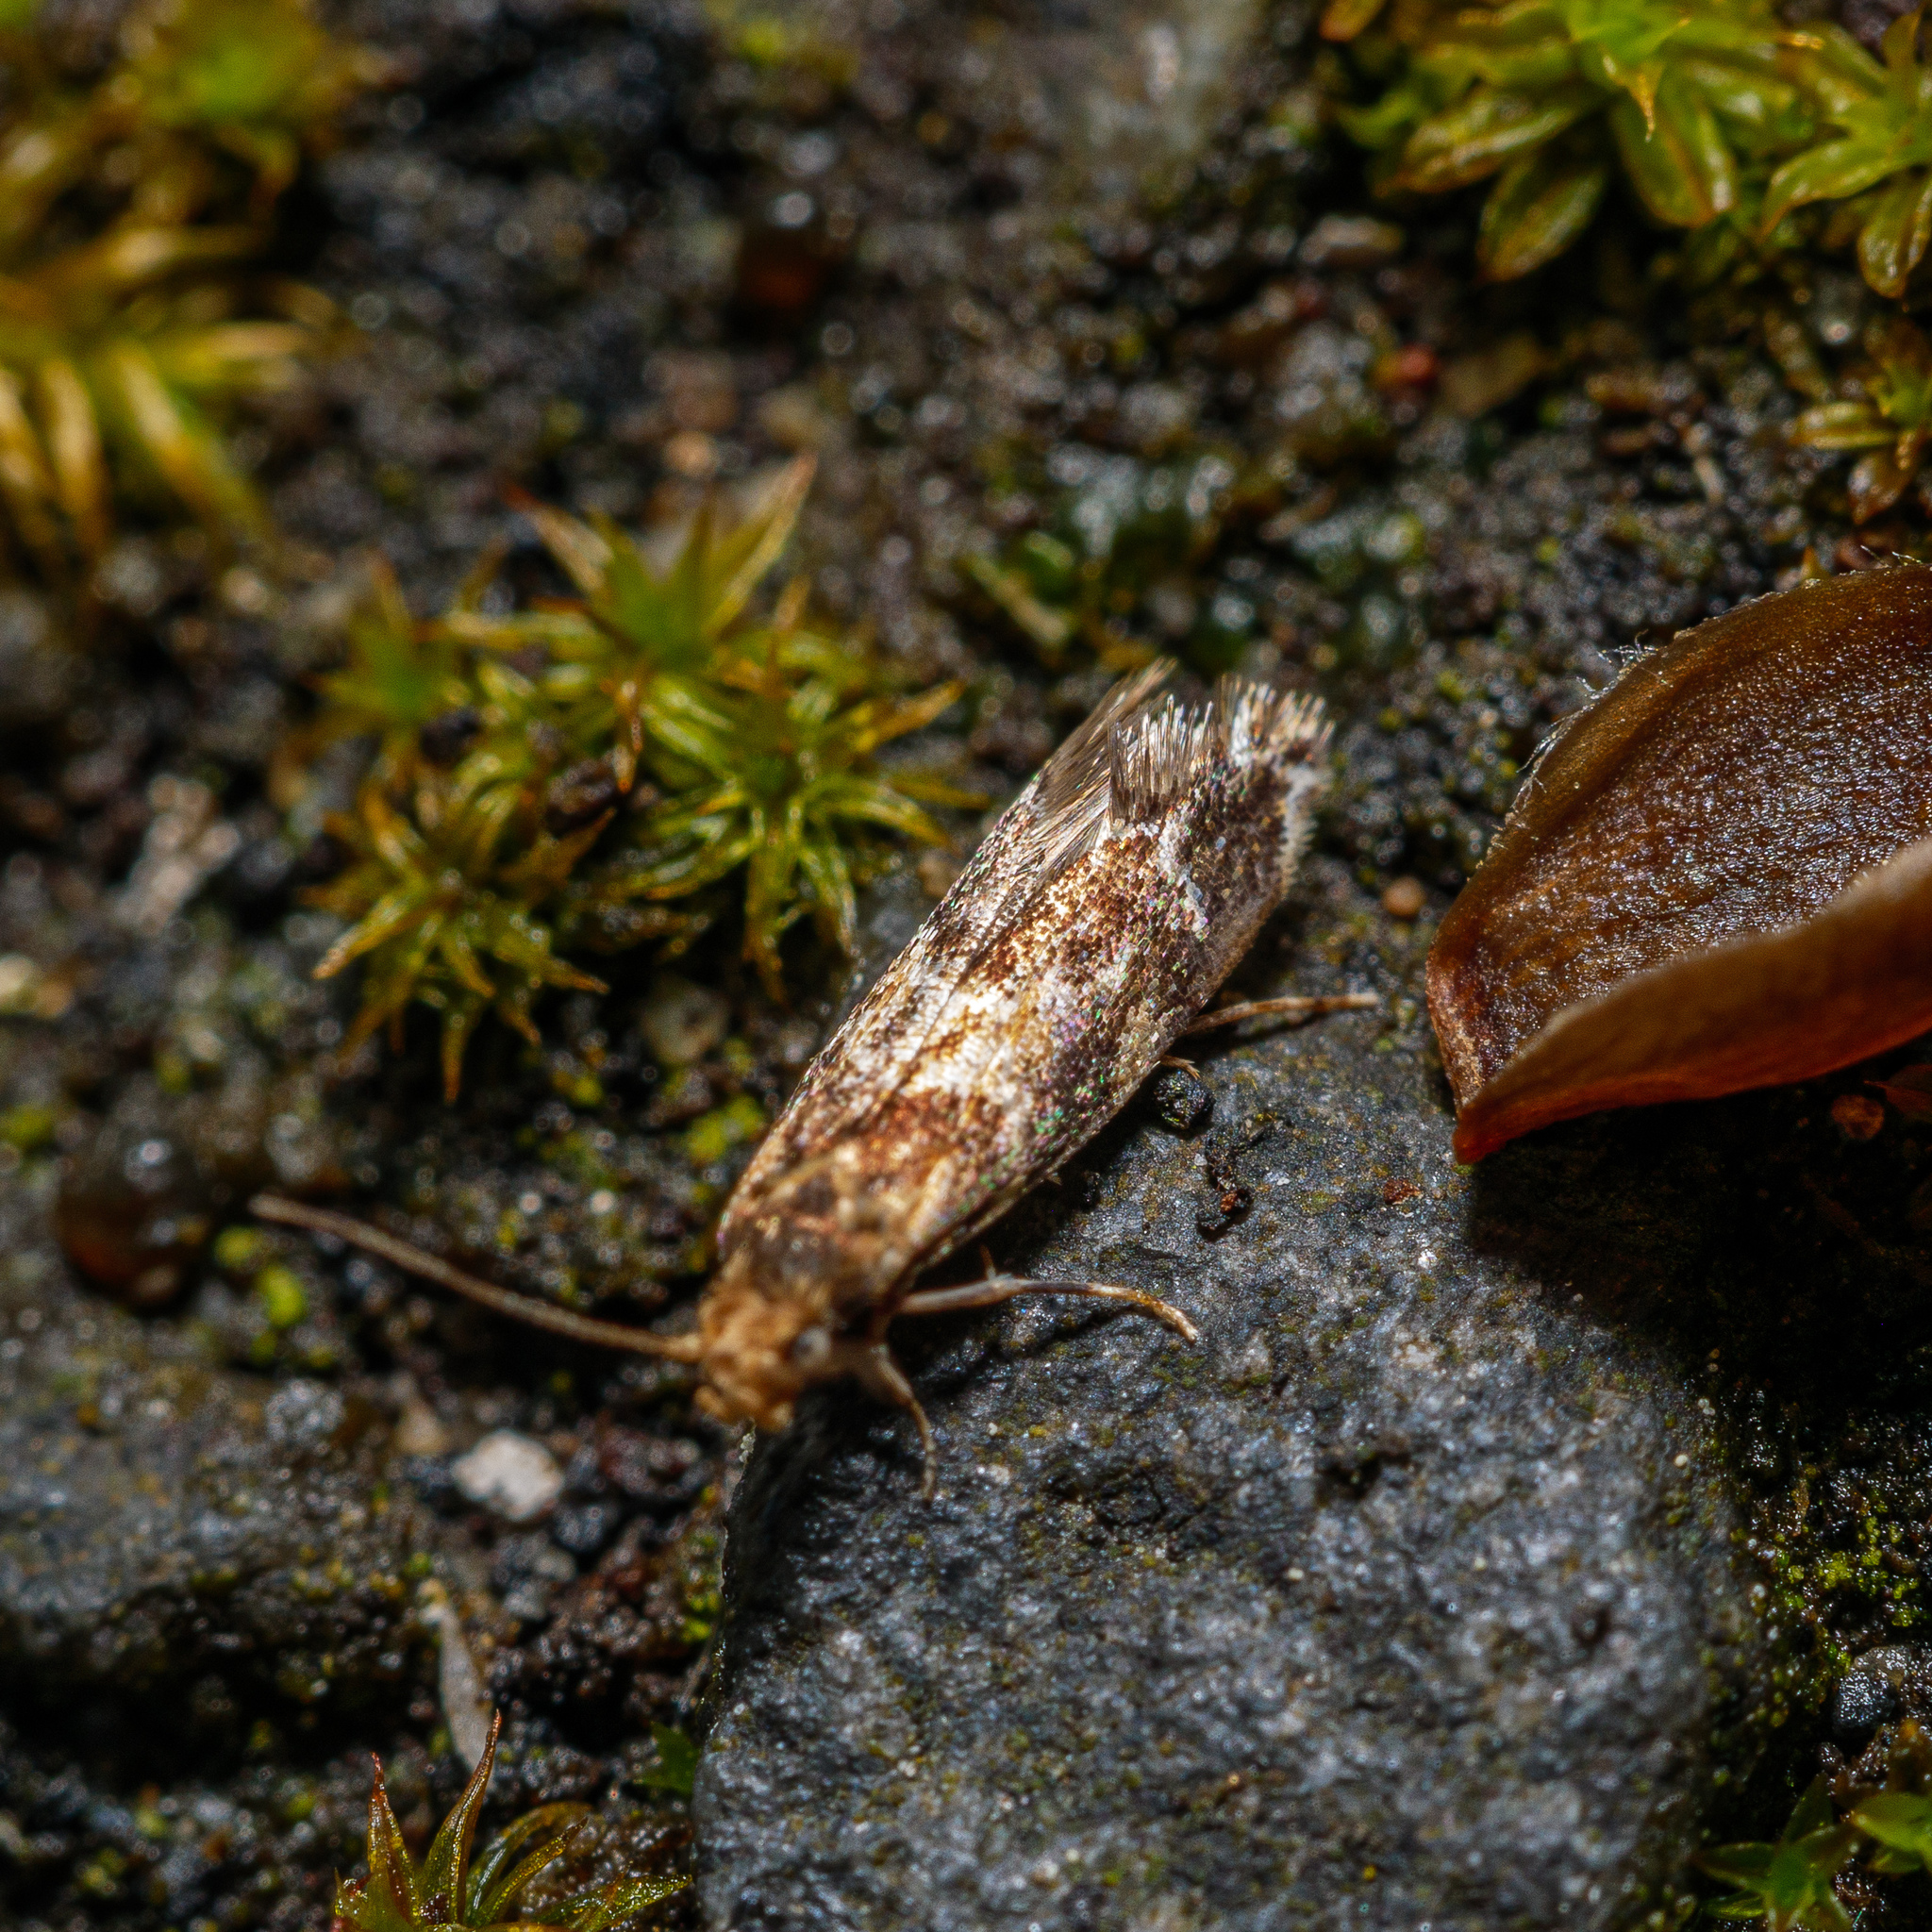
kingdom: Animalia
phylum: Arthropoda
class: Insecta
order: Lepidoptera
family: Dryadaulidae
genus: Dryadaula
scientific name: Dryadaula pactolia
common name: Cellar clothes
